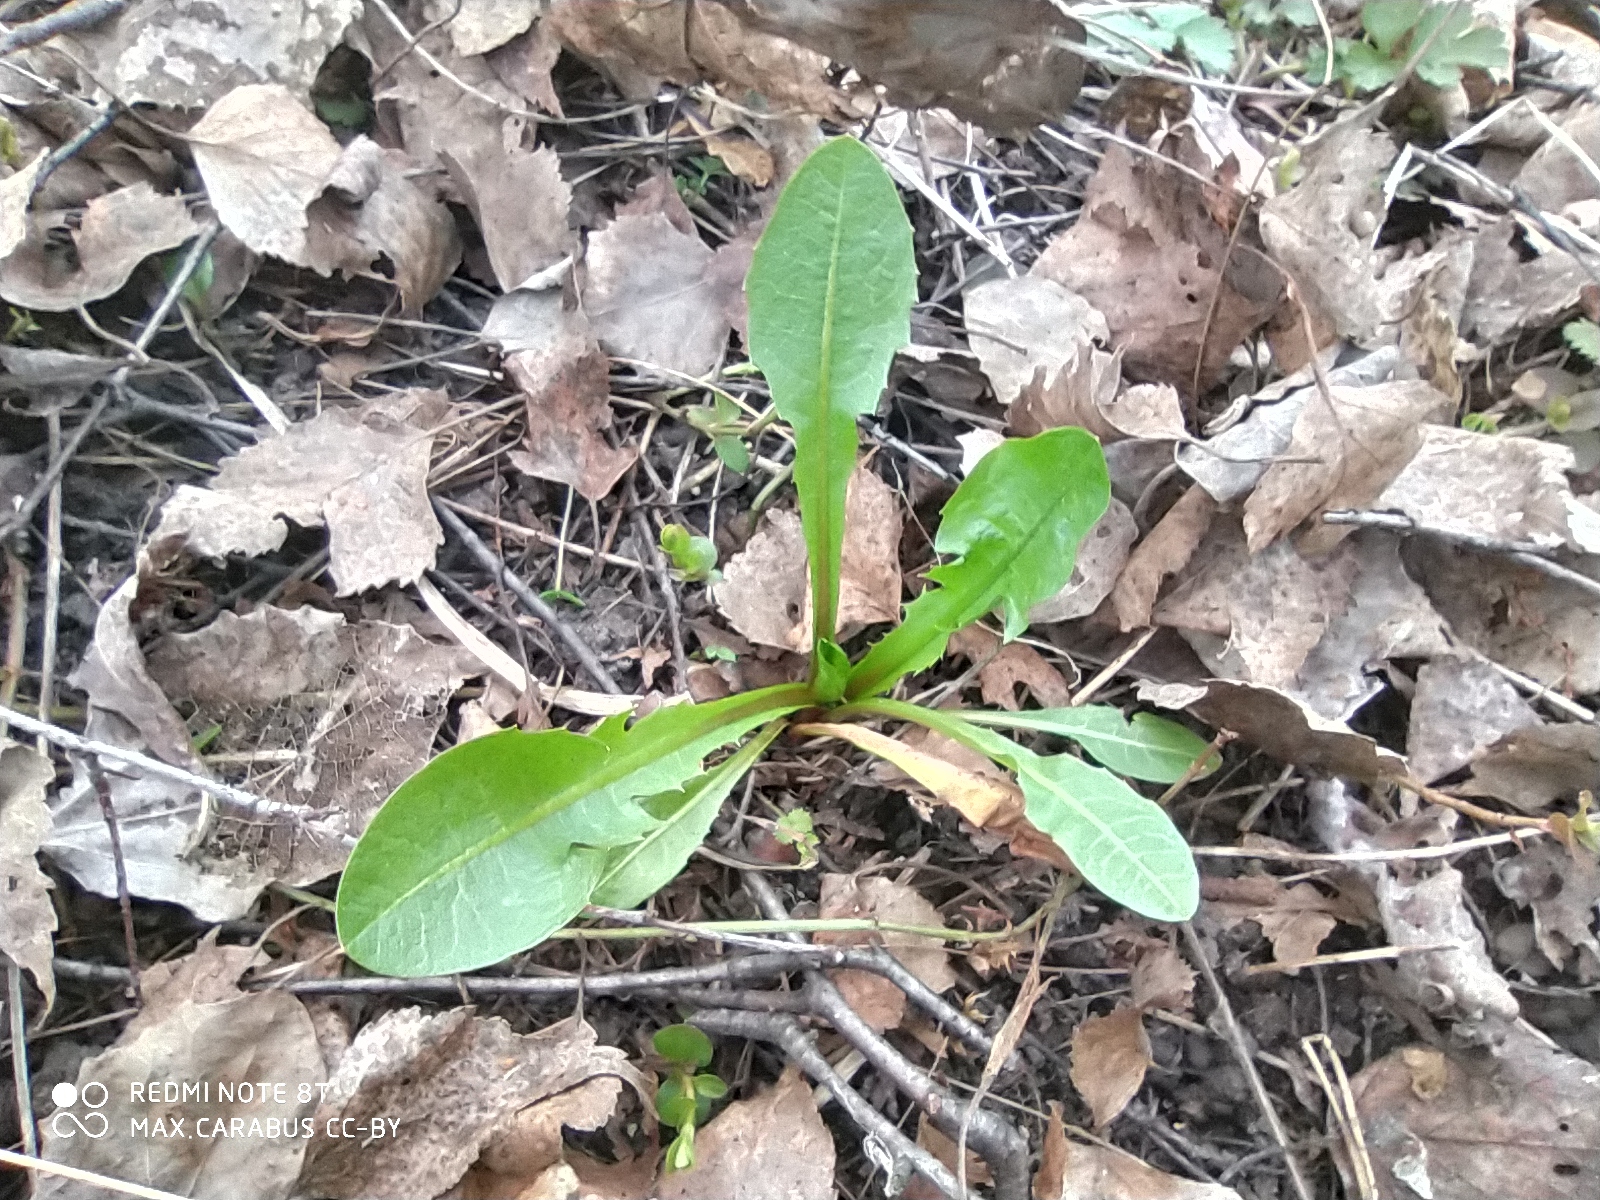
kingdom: Plantae
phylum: Tracheophyta
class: Magnoliopsida
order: Asterales
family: Asteraceae
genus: Taraxacum
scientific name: Taraxacum officinale
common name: Common dandelion
